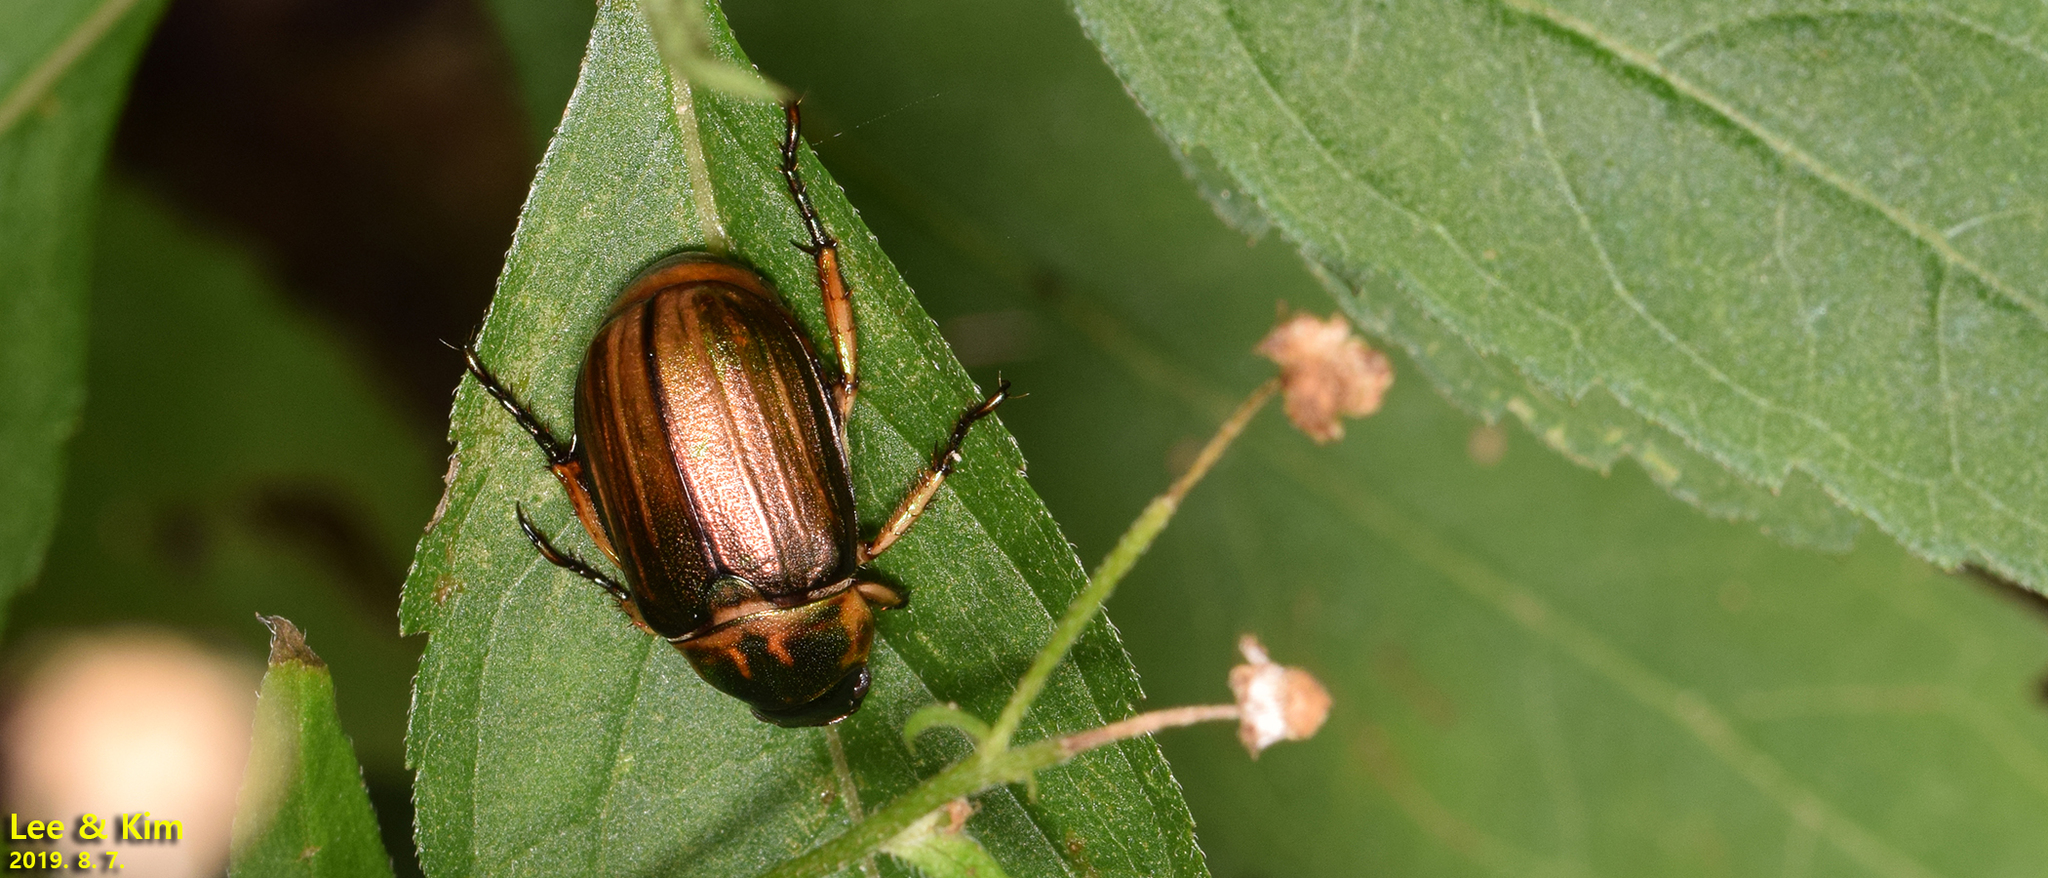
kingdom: Animalia
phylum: Arthropoda
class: Insecta
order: Coleoptera
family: Scarabaeidae
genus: Mimela
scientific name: Mimela testaceipes
